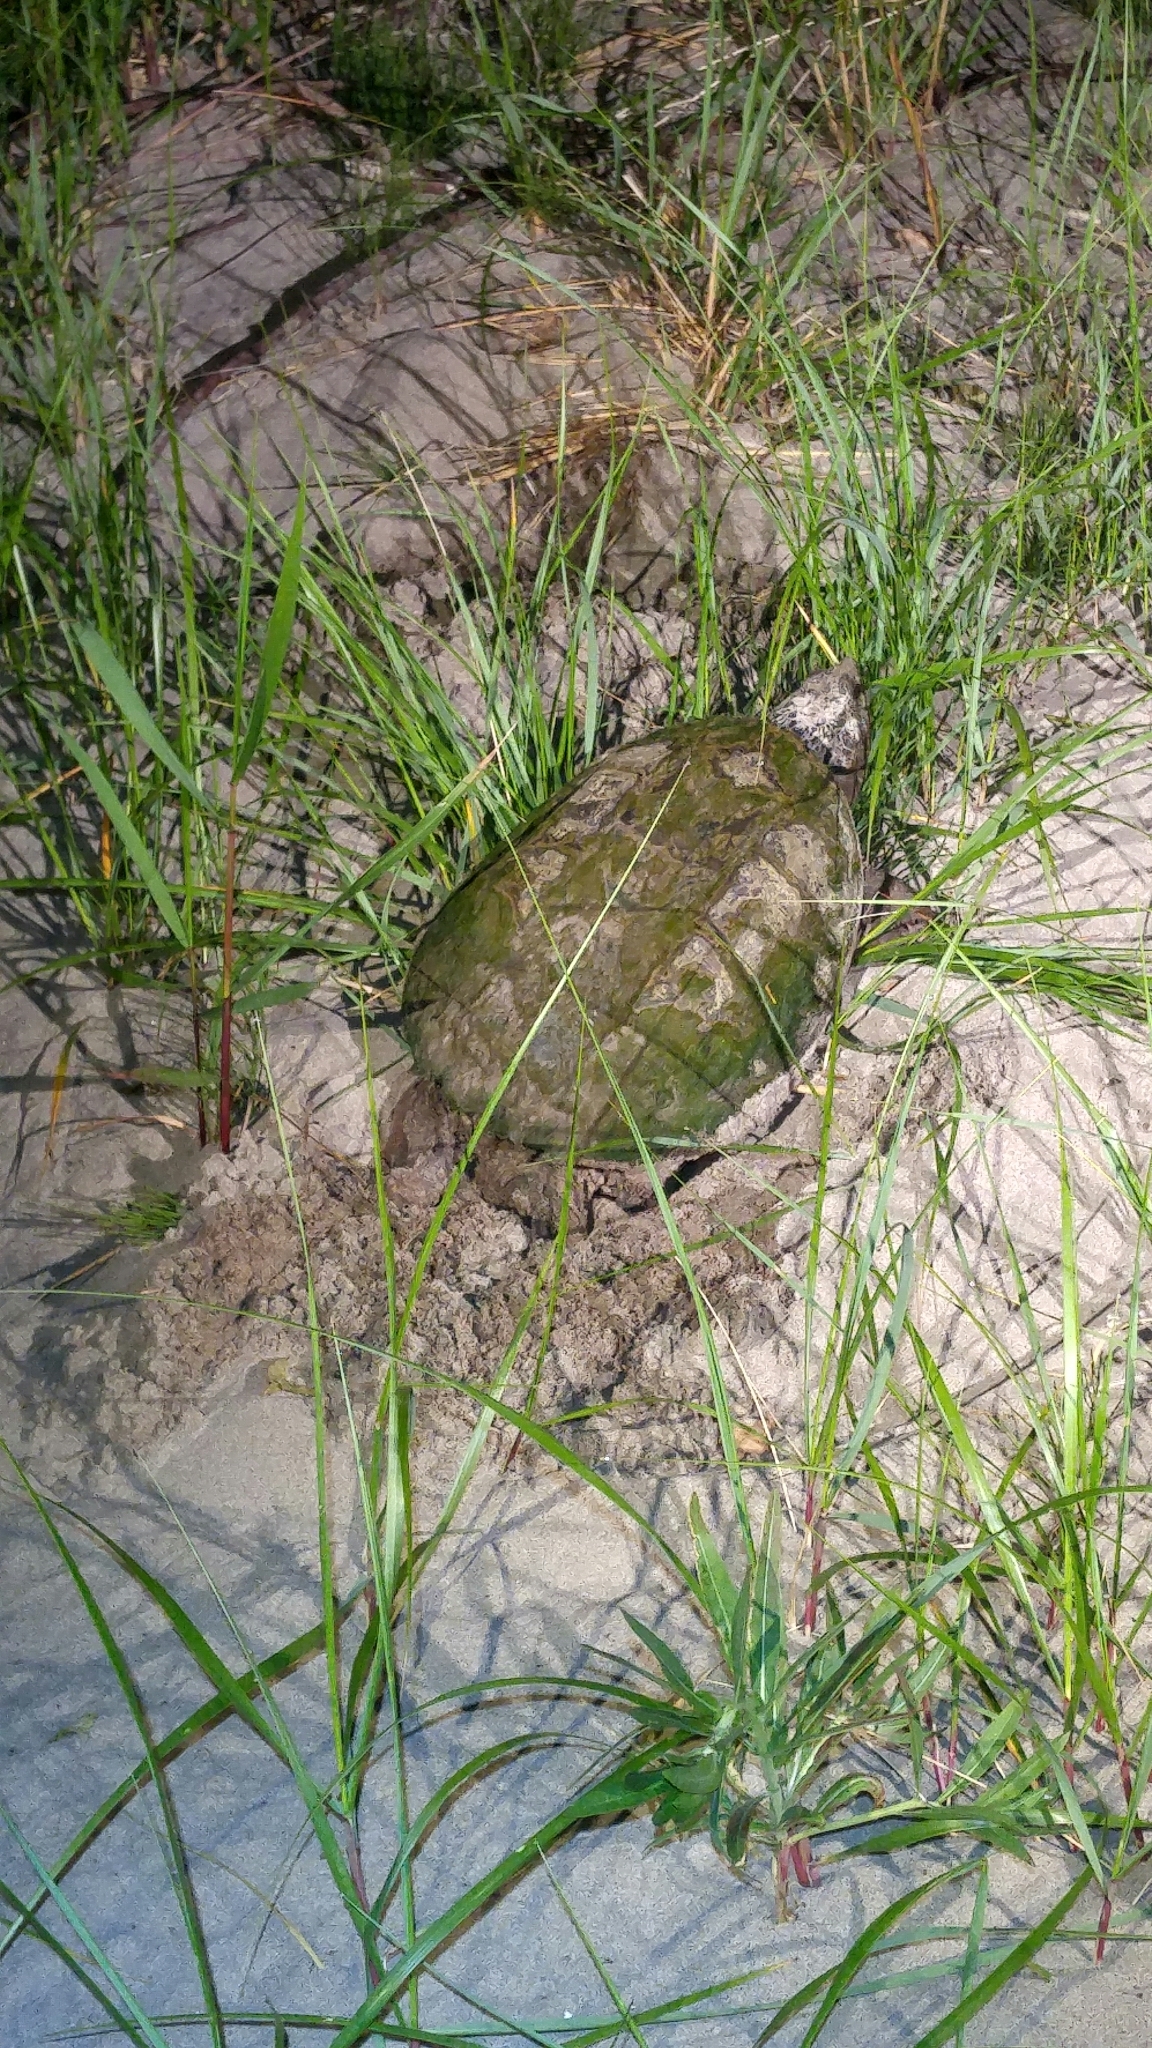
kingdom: Animalia
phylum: Chordata
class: Testudines
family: Chelydridae
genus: Chelydra
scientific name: Chelydra serpentina
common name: Common snapping turtle
